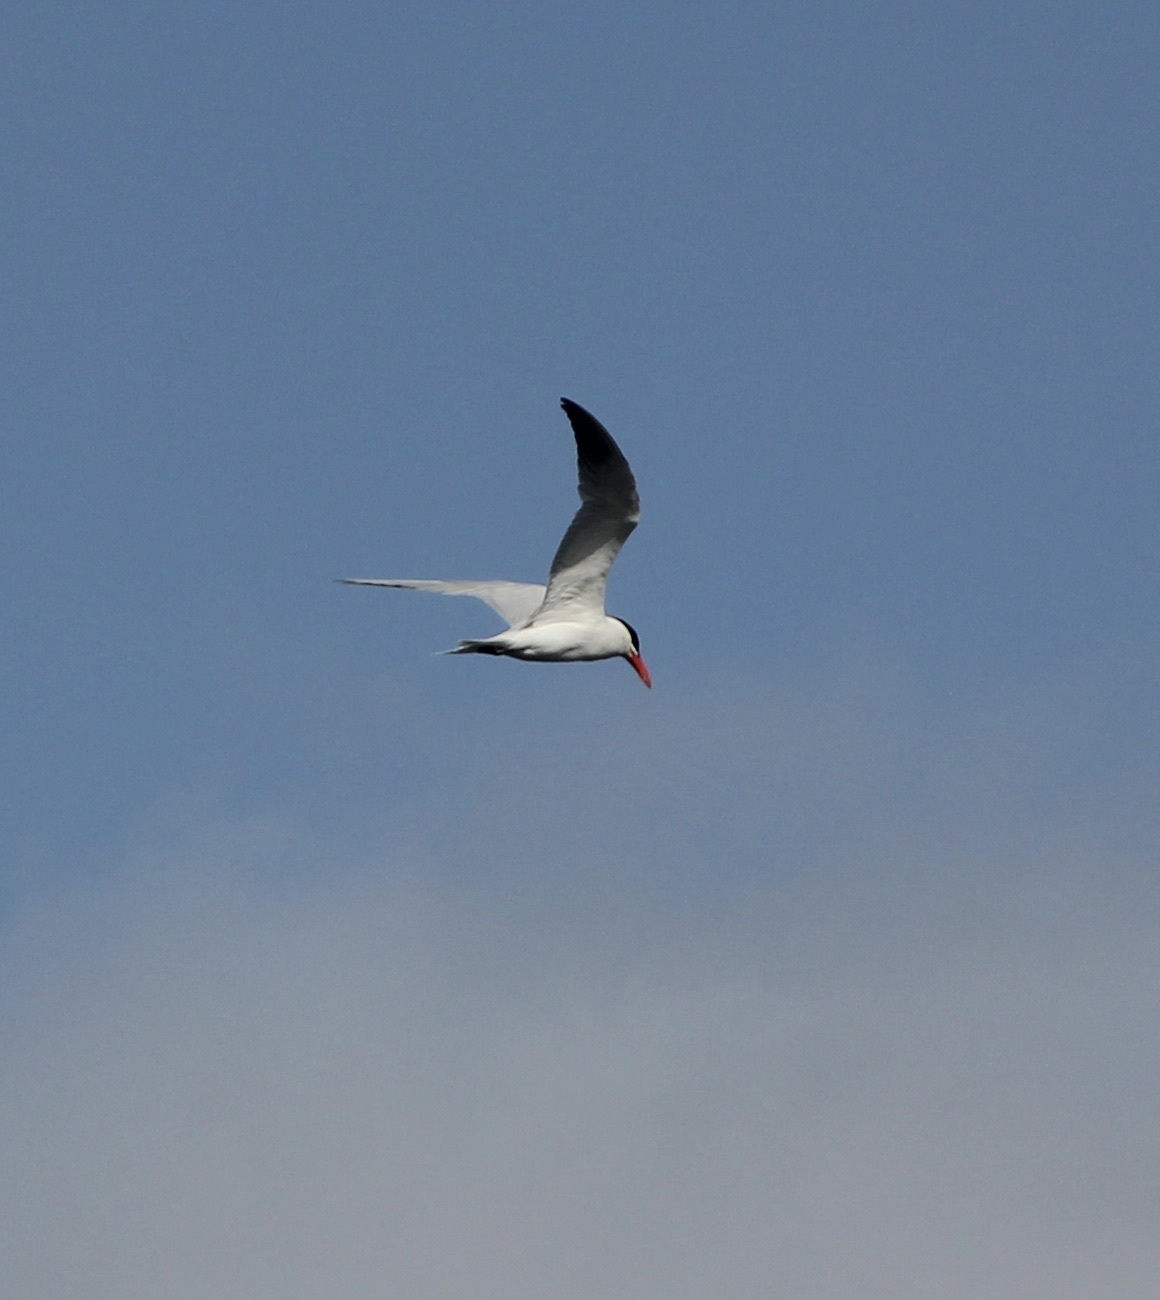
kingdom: Animalia
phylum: Chordata
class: Aves
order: Charadriiformes
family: Laridae
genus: Hydroprogne
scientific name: Hydroprogne caspia
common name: Caspian tern
